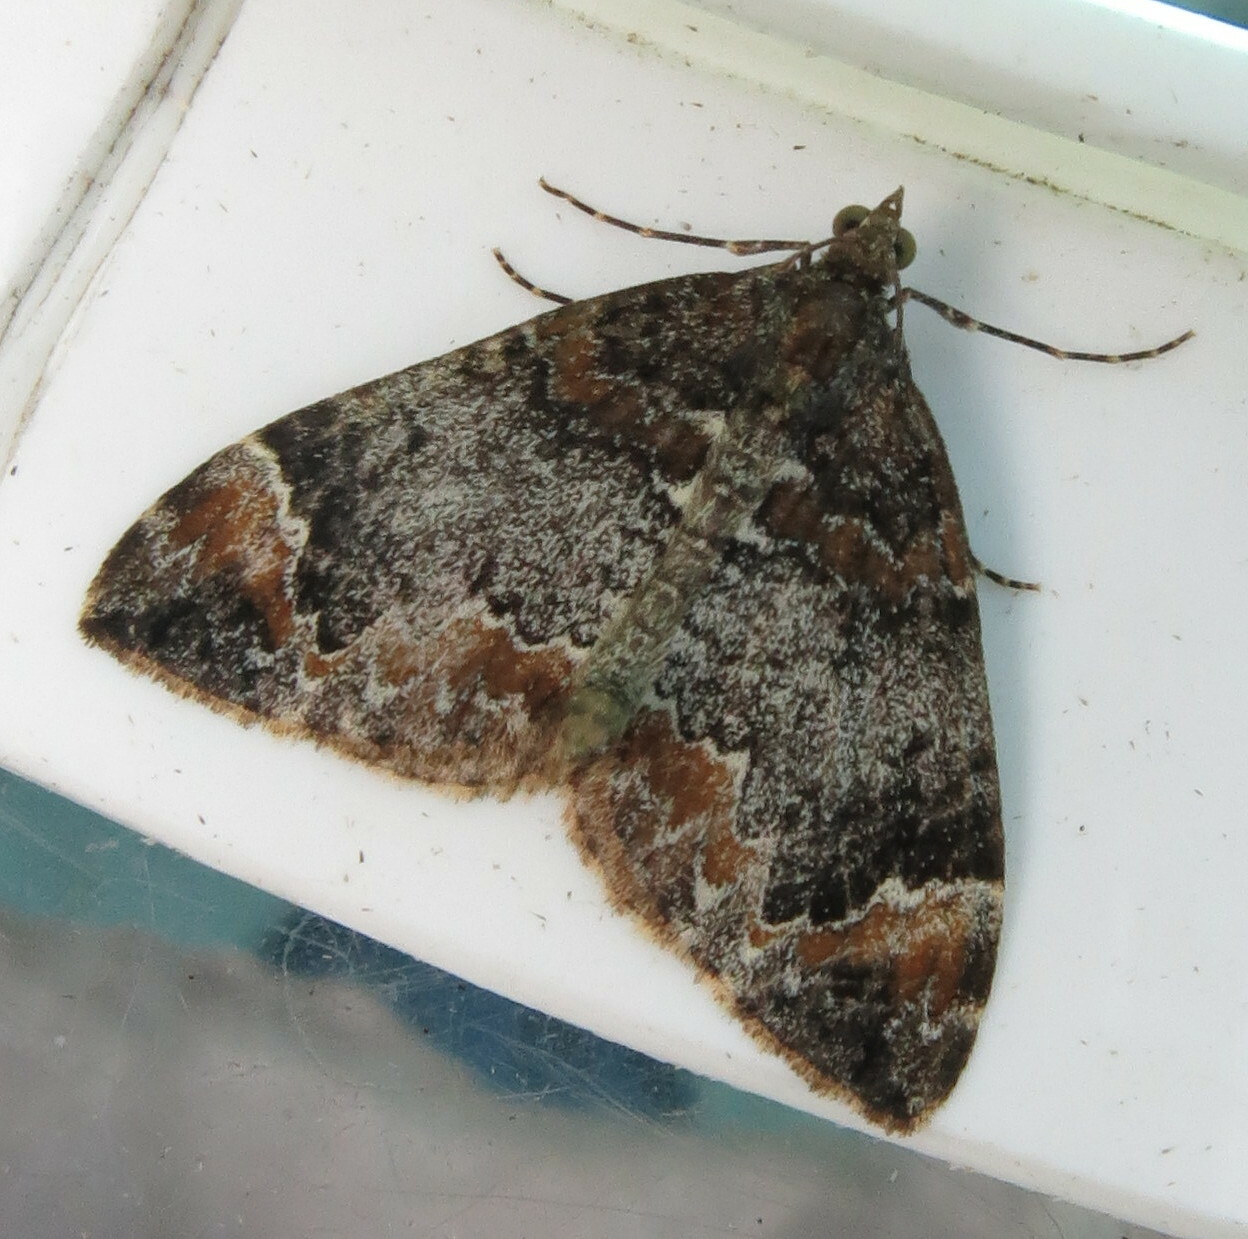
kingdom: Animalia
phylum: Arthropoda
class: Insecta
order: Lepidoptera
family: Geometridae
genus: Dysstroma
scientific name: Dysstroma truncata
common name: Common marbled carpet
